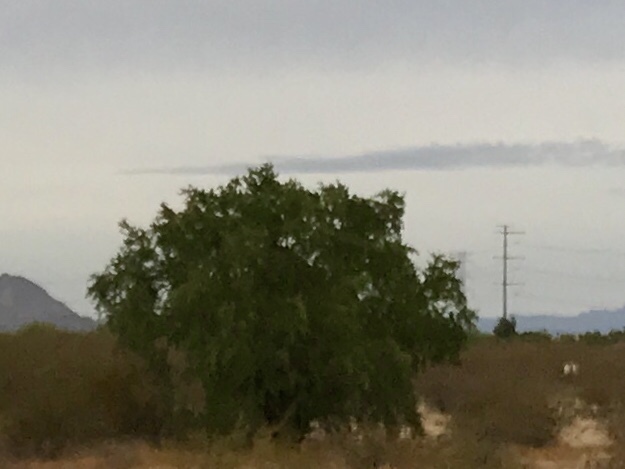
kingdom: Plantae
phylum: Tracheophyta
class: Magnoliopsida
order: Fabales
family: Fabaceae
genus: Olneya
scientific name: Olneya tesota
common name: Desert ironwood
